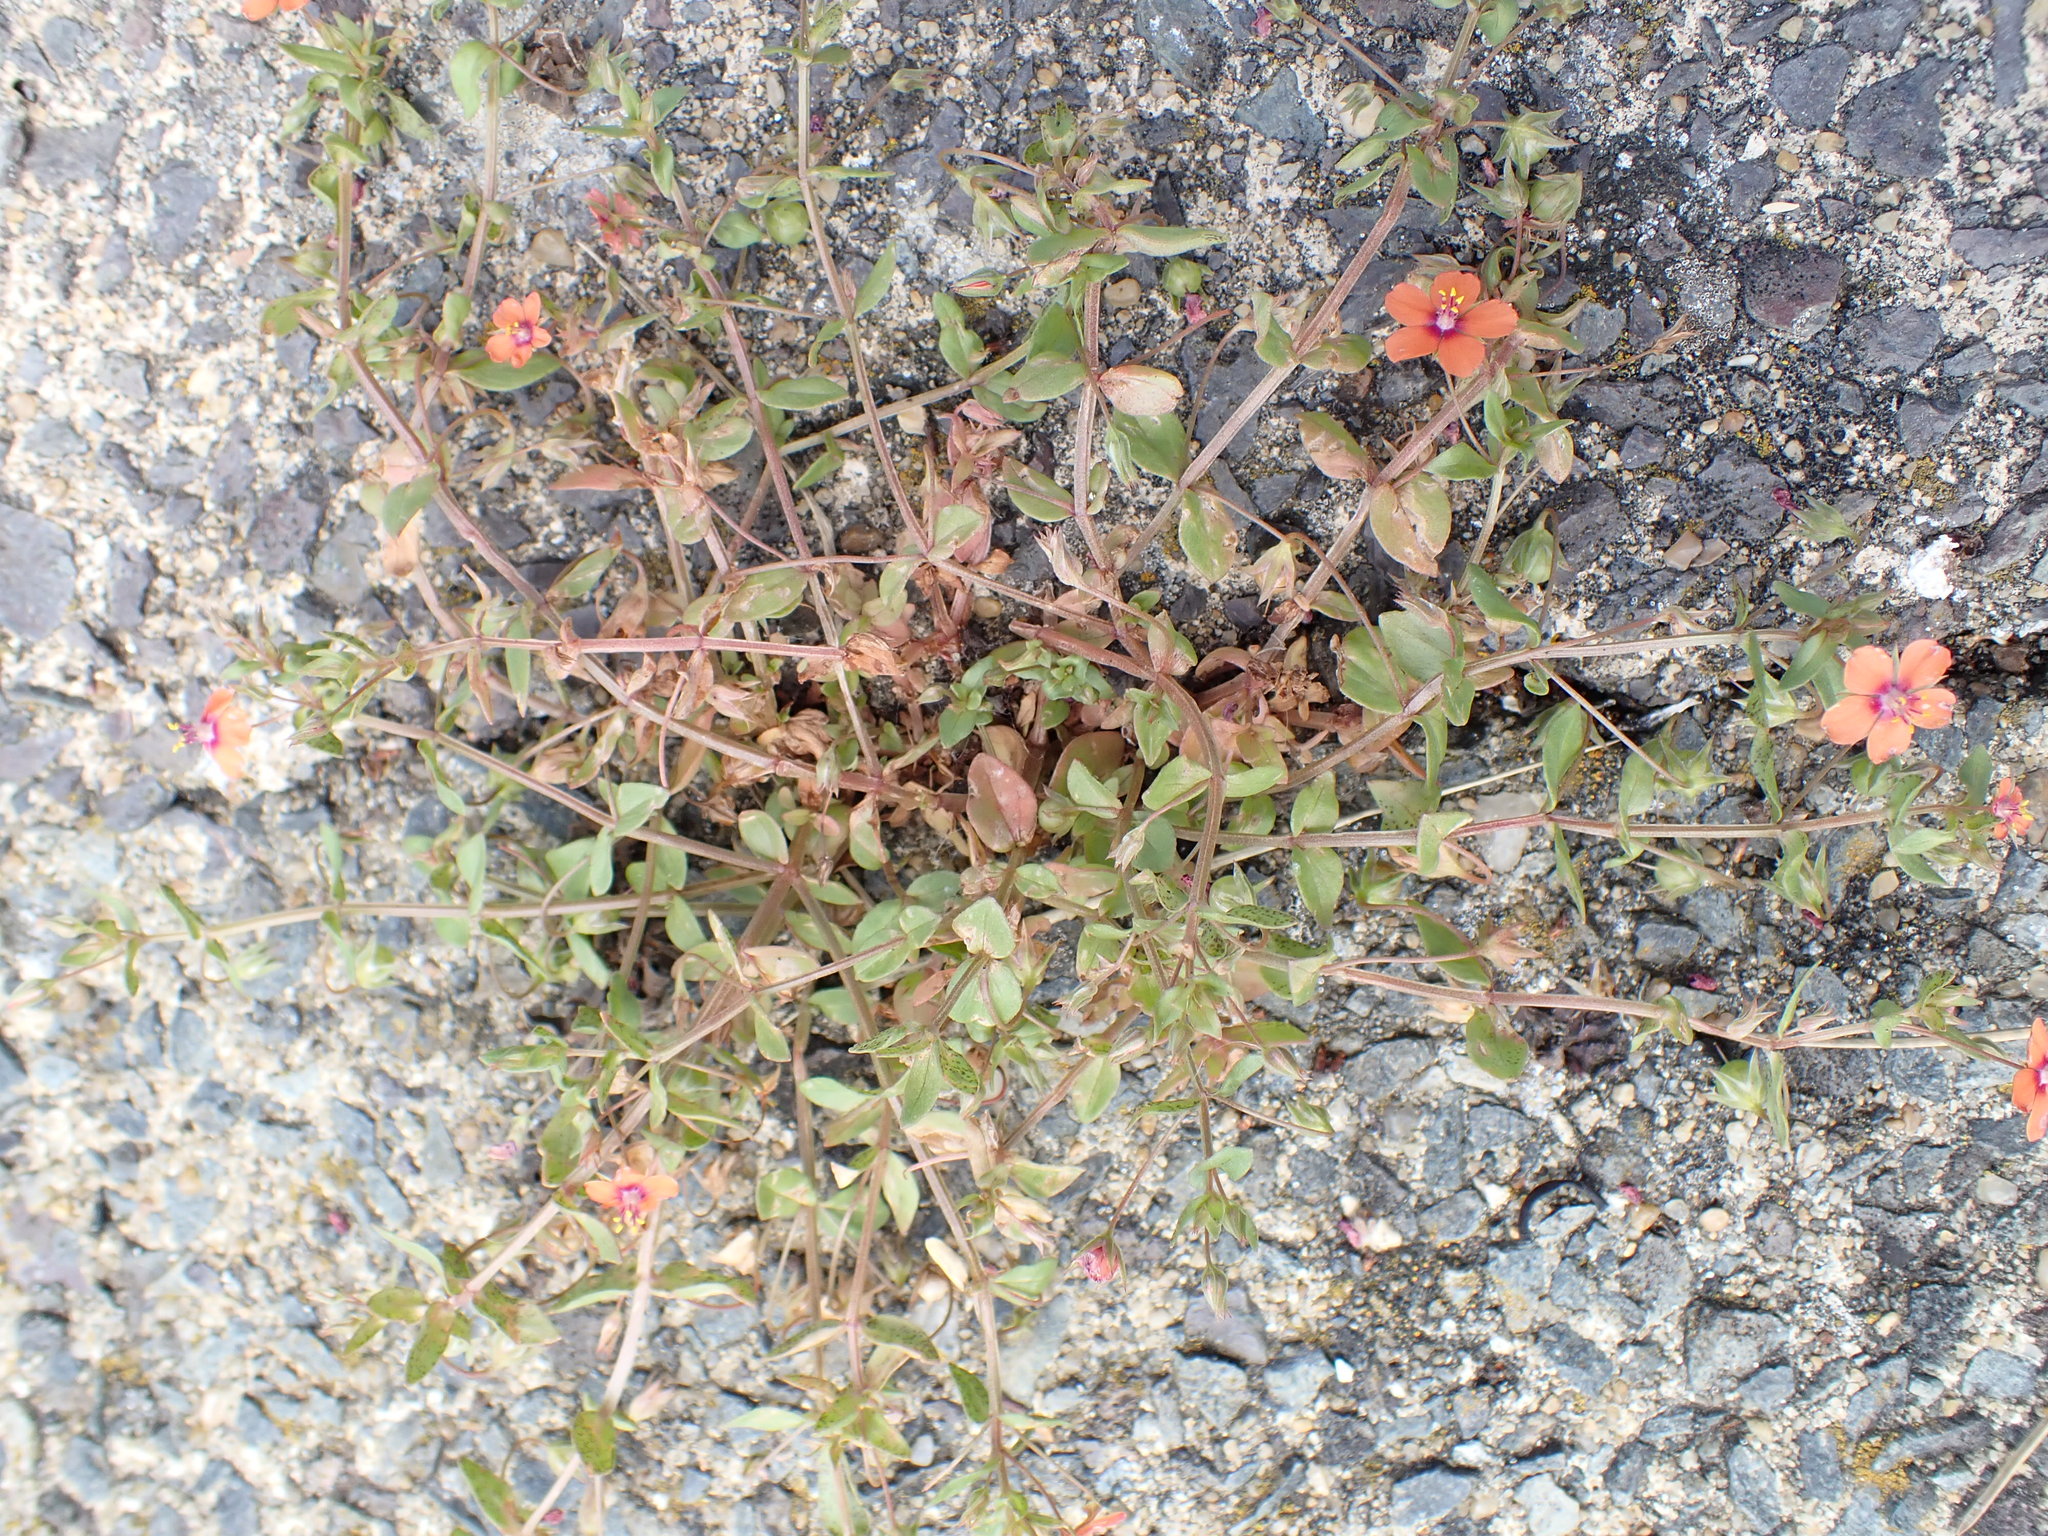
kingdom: Plantae
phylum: Tracheophyta
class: Magnoliopsida
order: Ericales
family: Primulaceae
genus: Lysimachia
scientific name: Lysimachia arvensis
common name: Scarlet pimpernel
